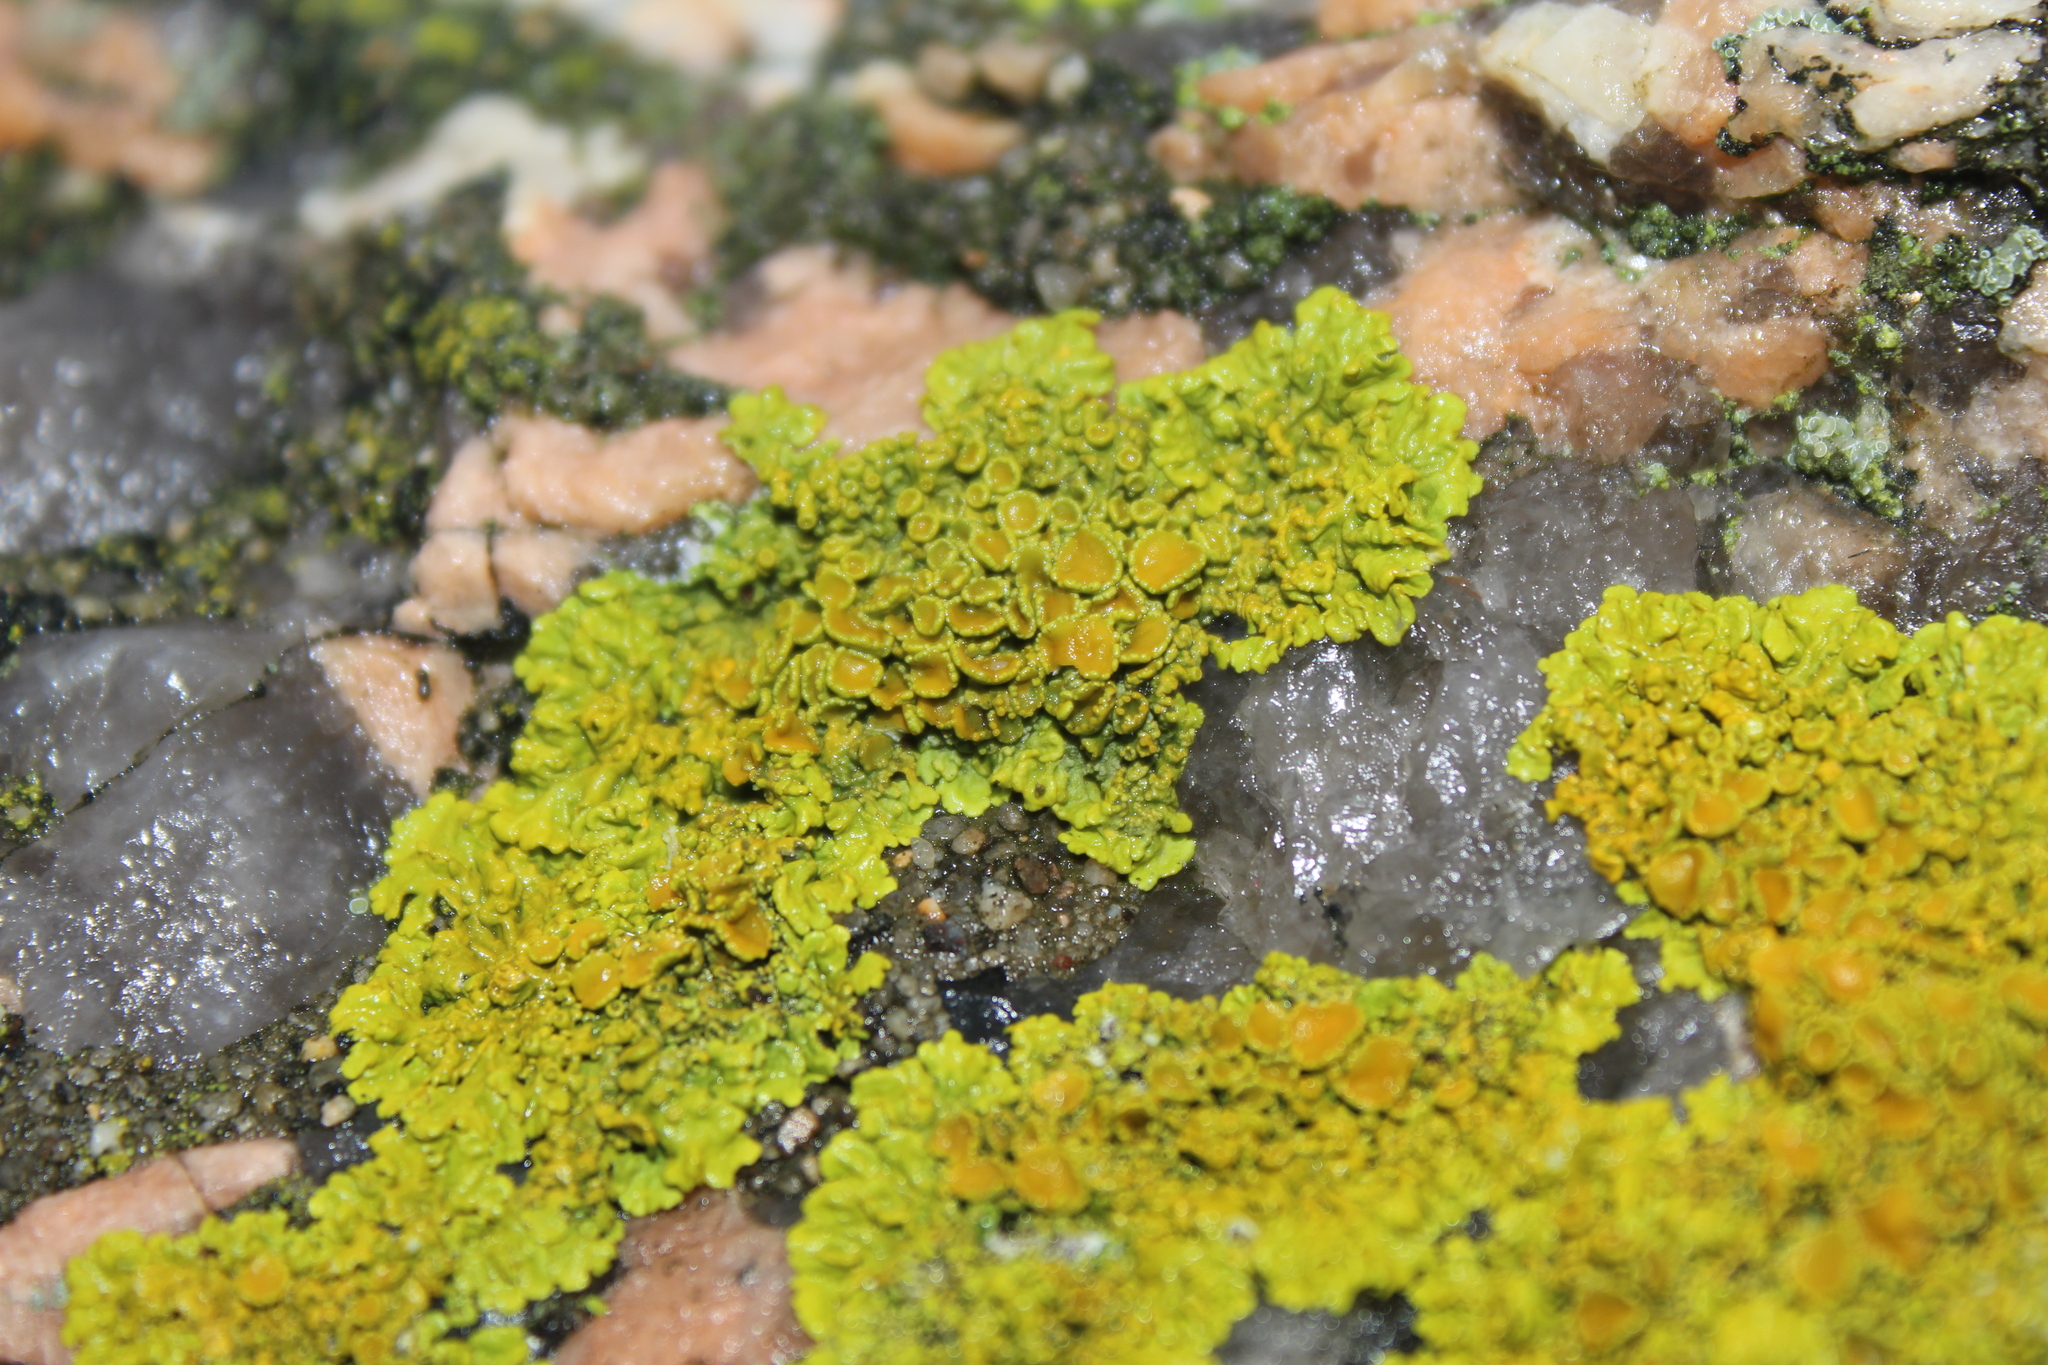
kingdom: Fungi
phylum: Ascomycota
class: Lecanoromycetes
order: Teloschistales
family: Teloschistaceae
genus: Xanthoria
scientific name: Xanthoria parietina
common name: Common orange lichen
